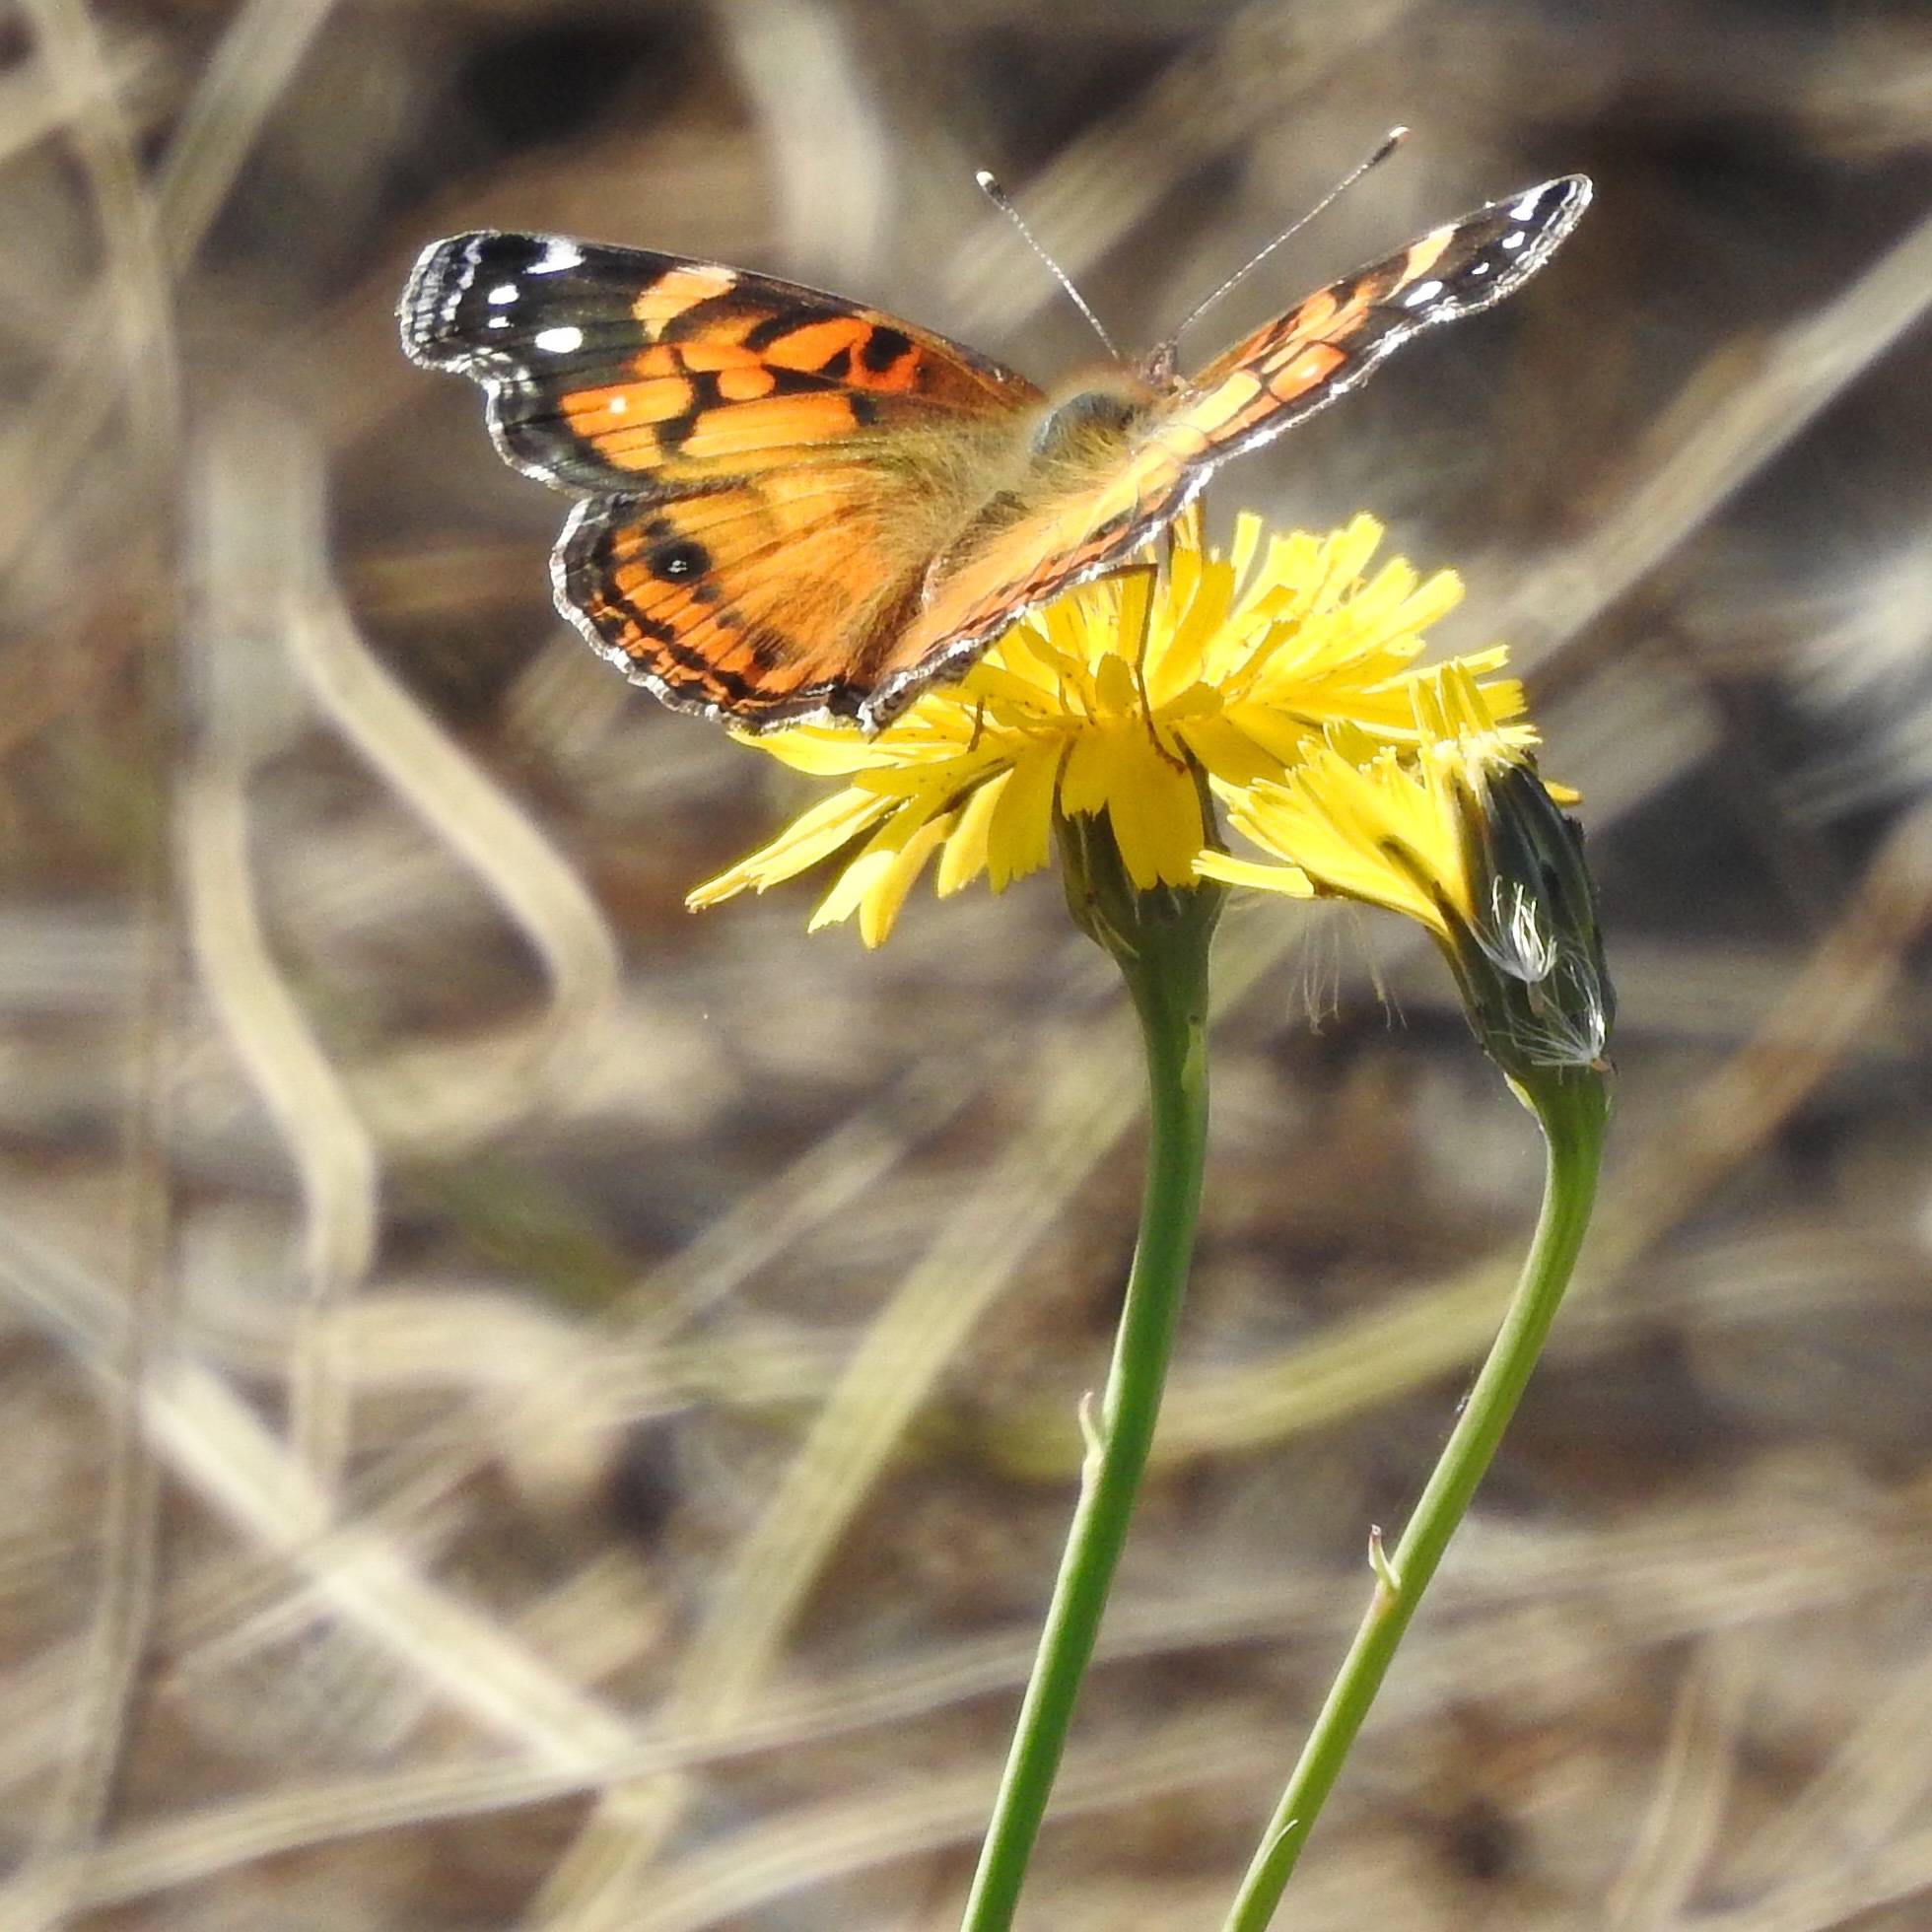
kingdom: Animalia
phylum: Arthropoda
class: Insecta
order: Lepidoptera
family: Nymphalidae
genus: Vanessa
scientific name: Vanessa virginiensis
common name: American lady
